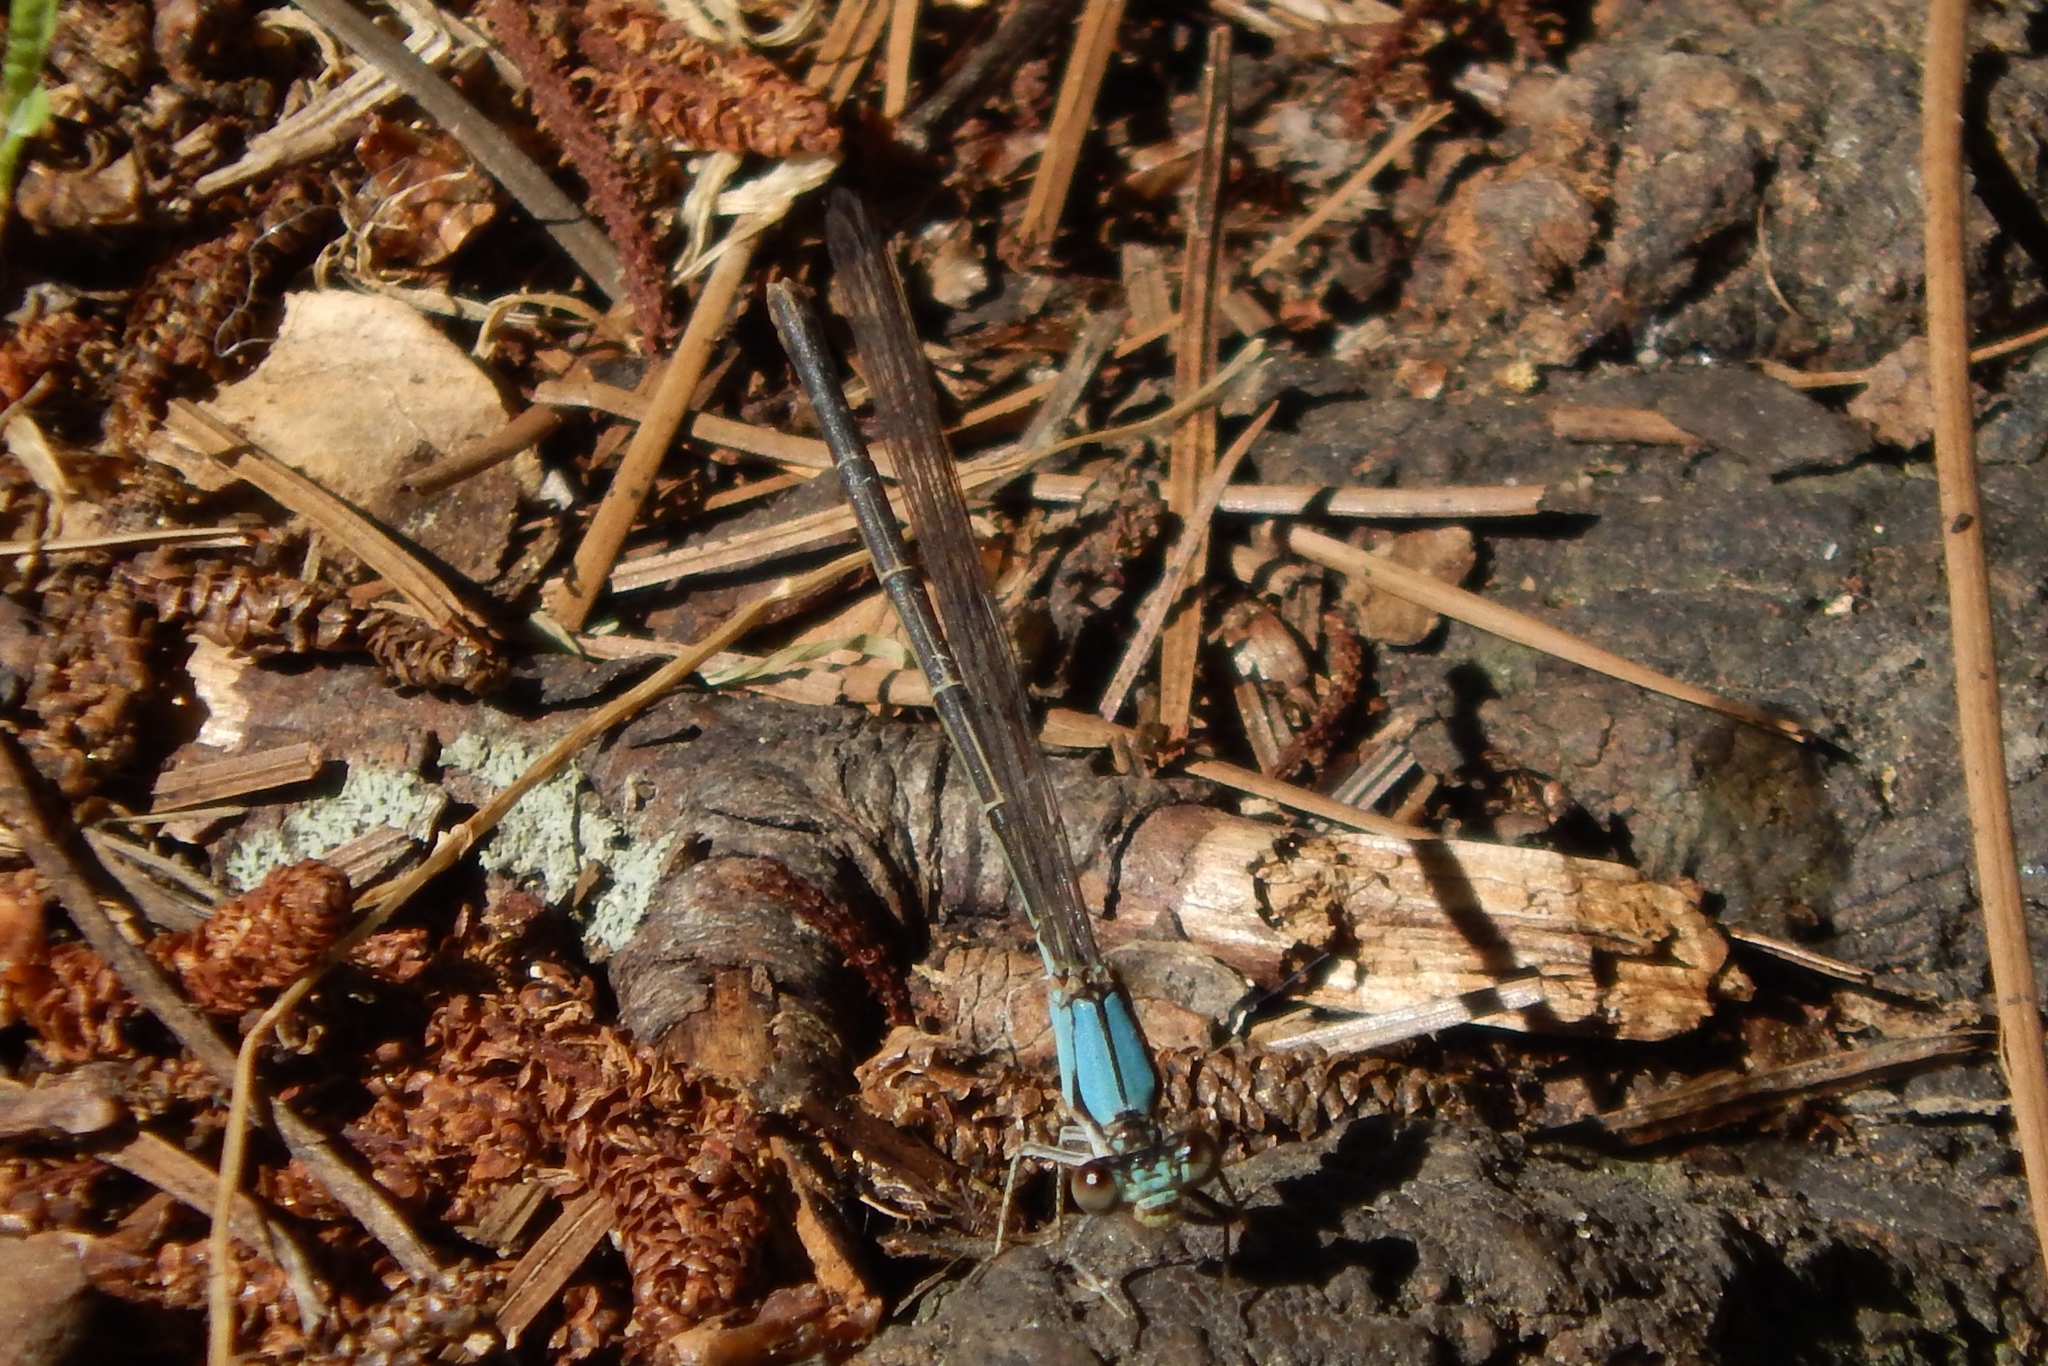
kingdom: Animalia
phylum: Arthropoda
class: Insecta
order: Odonata
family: Coenagrionidae
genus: Argia
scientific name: Argia apicalis
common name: Blue-fronted dancer
